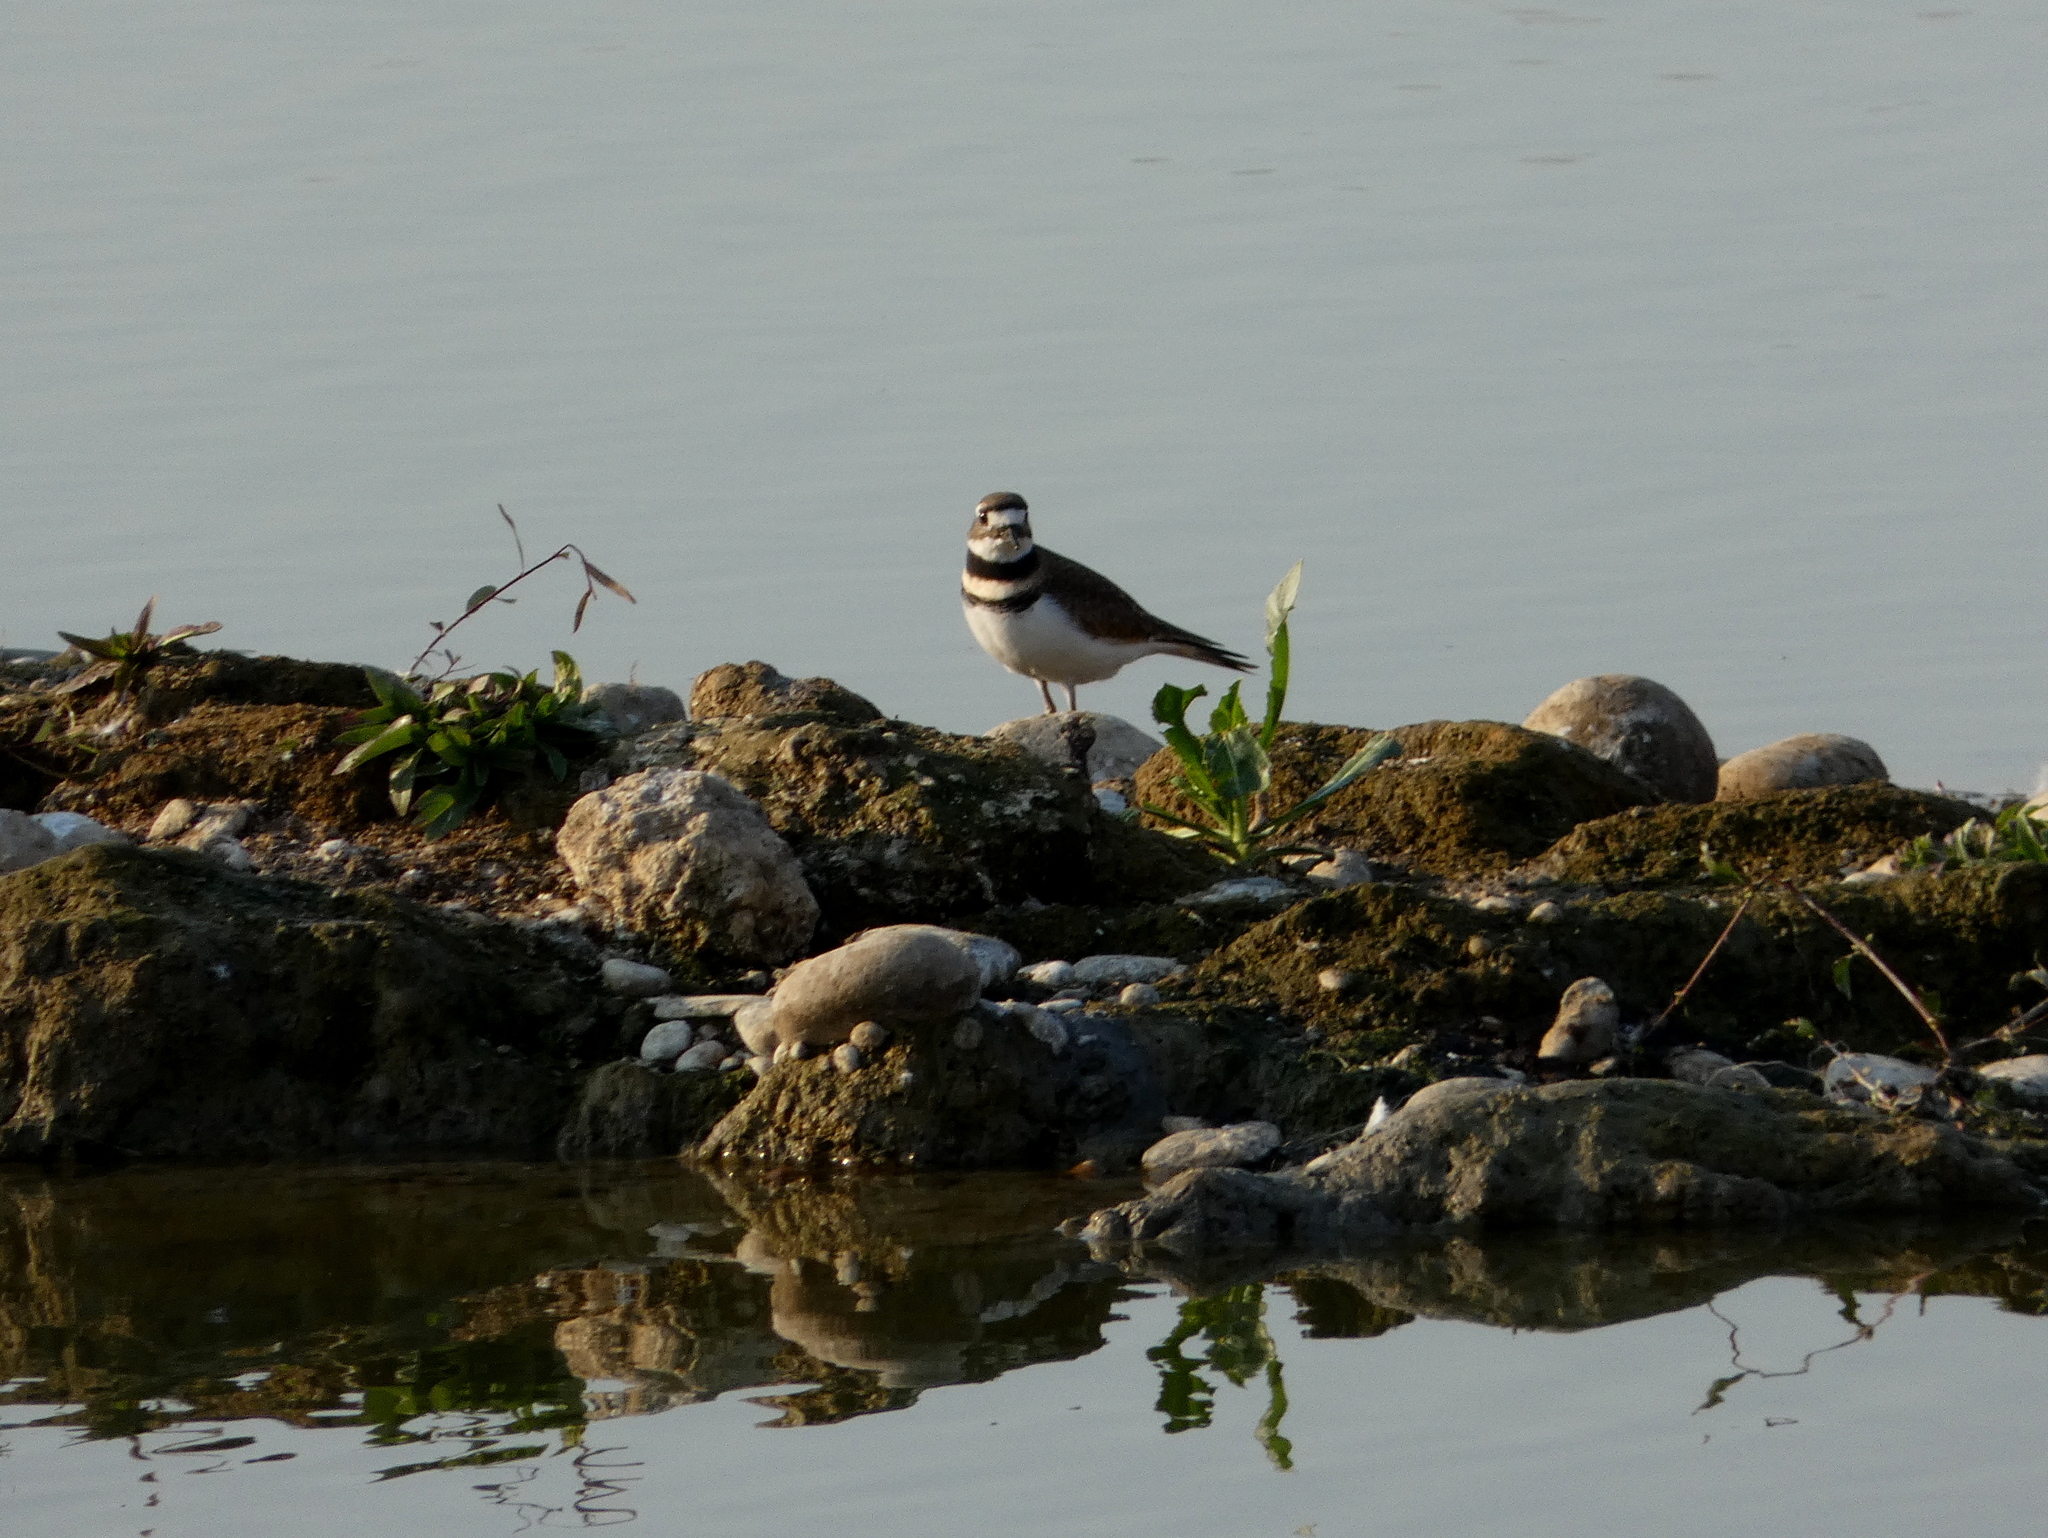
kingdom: Animalia
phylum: Chordata
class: Aves
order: Charadriiformes
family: Charadriidae
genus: Charadrius
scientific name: Charadrius vociferus
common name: Killdeer
